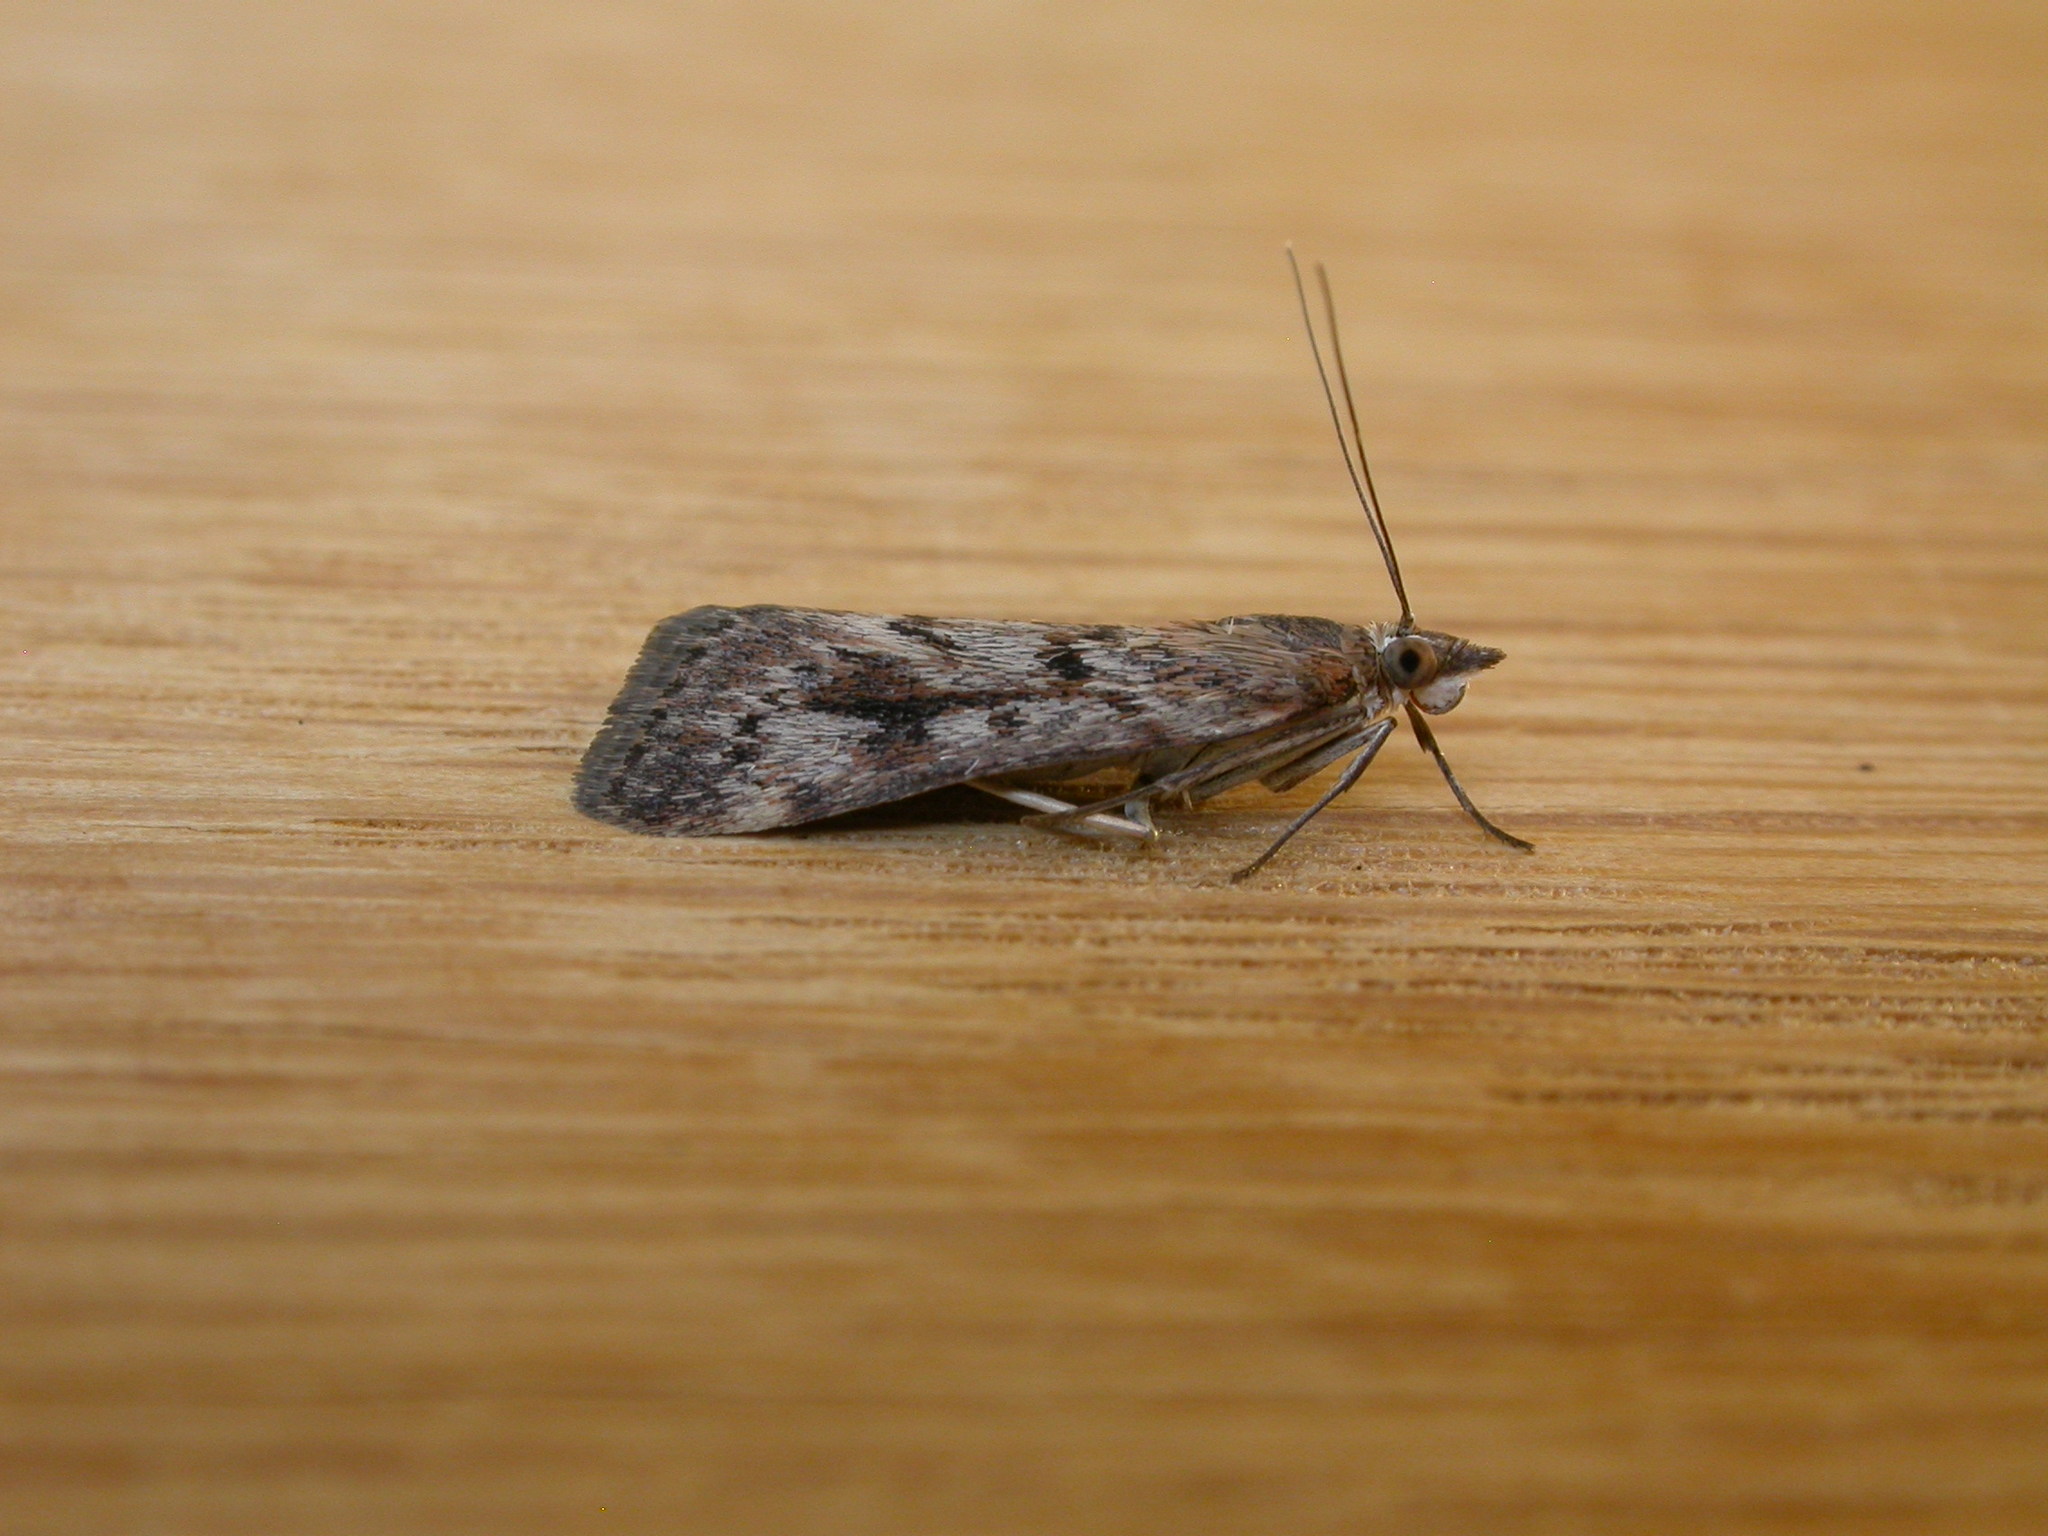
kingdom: Animalia
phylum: Arthropoda
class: Insecta
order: Lepidoptera
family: Crambidae
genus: Achyra
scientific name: Achyra affinitalis
